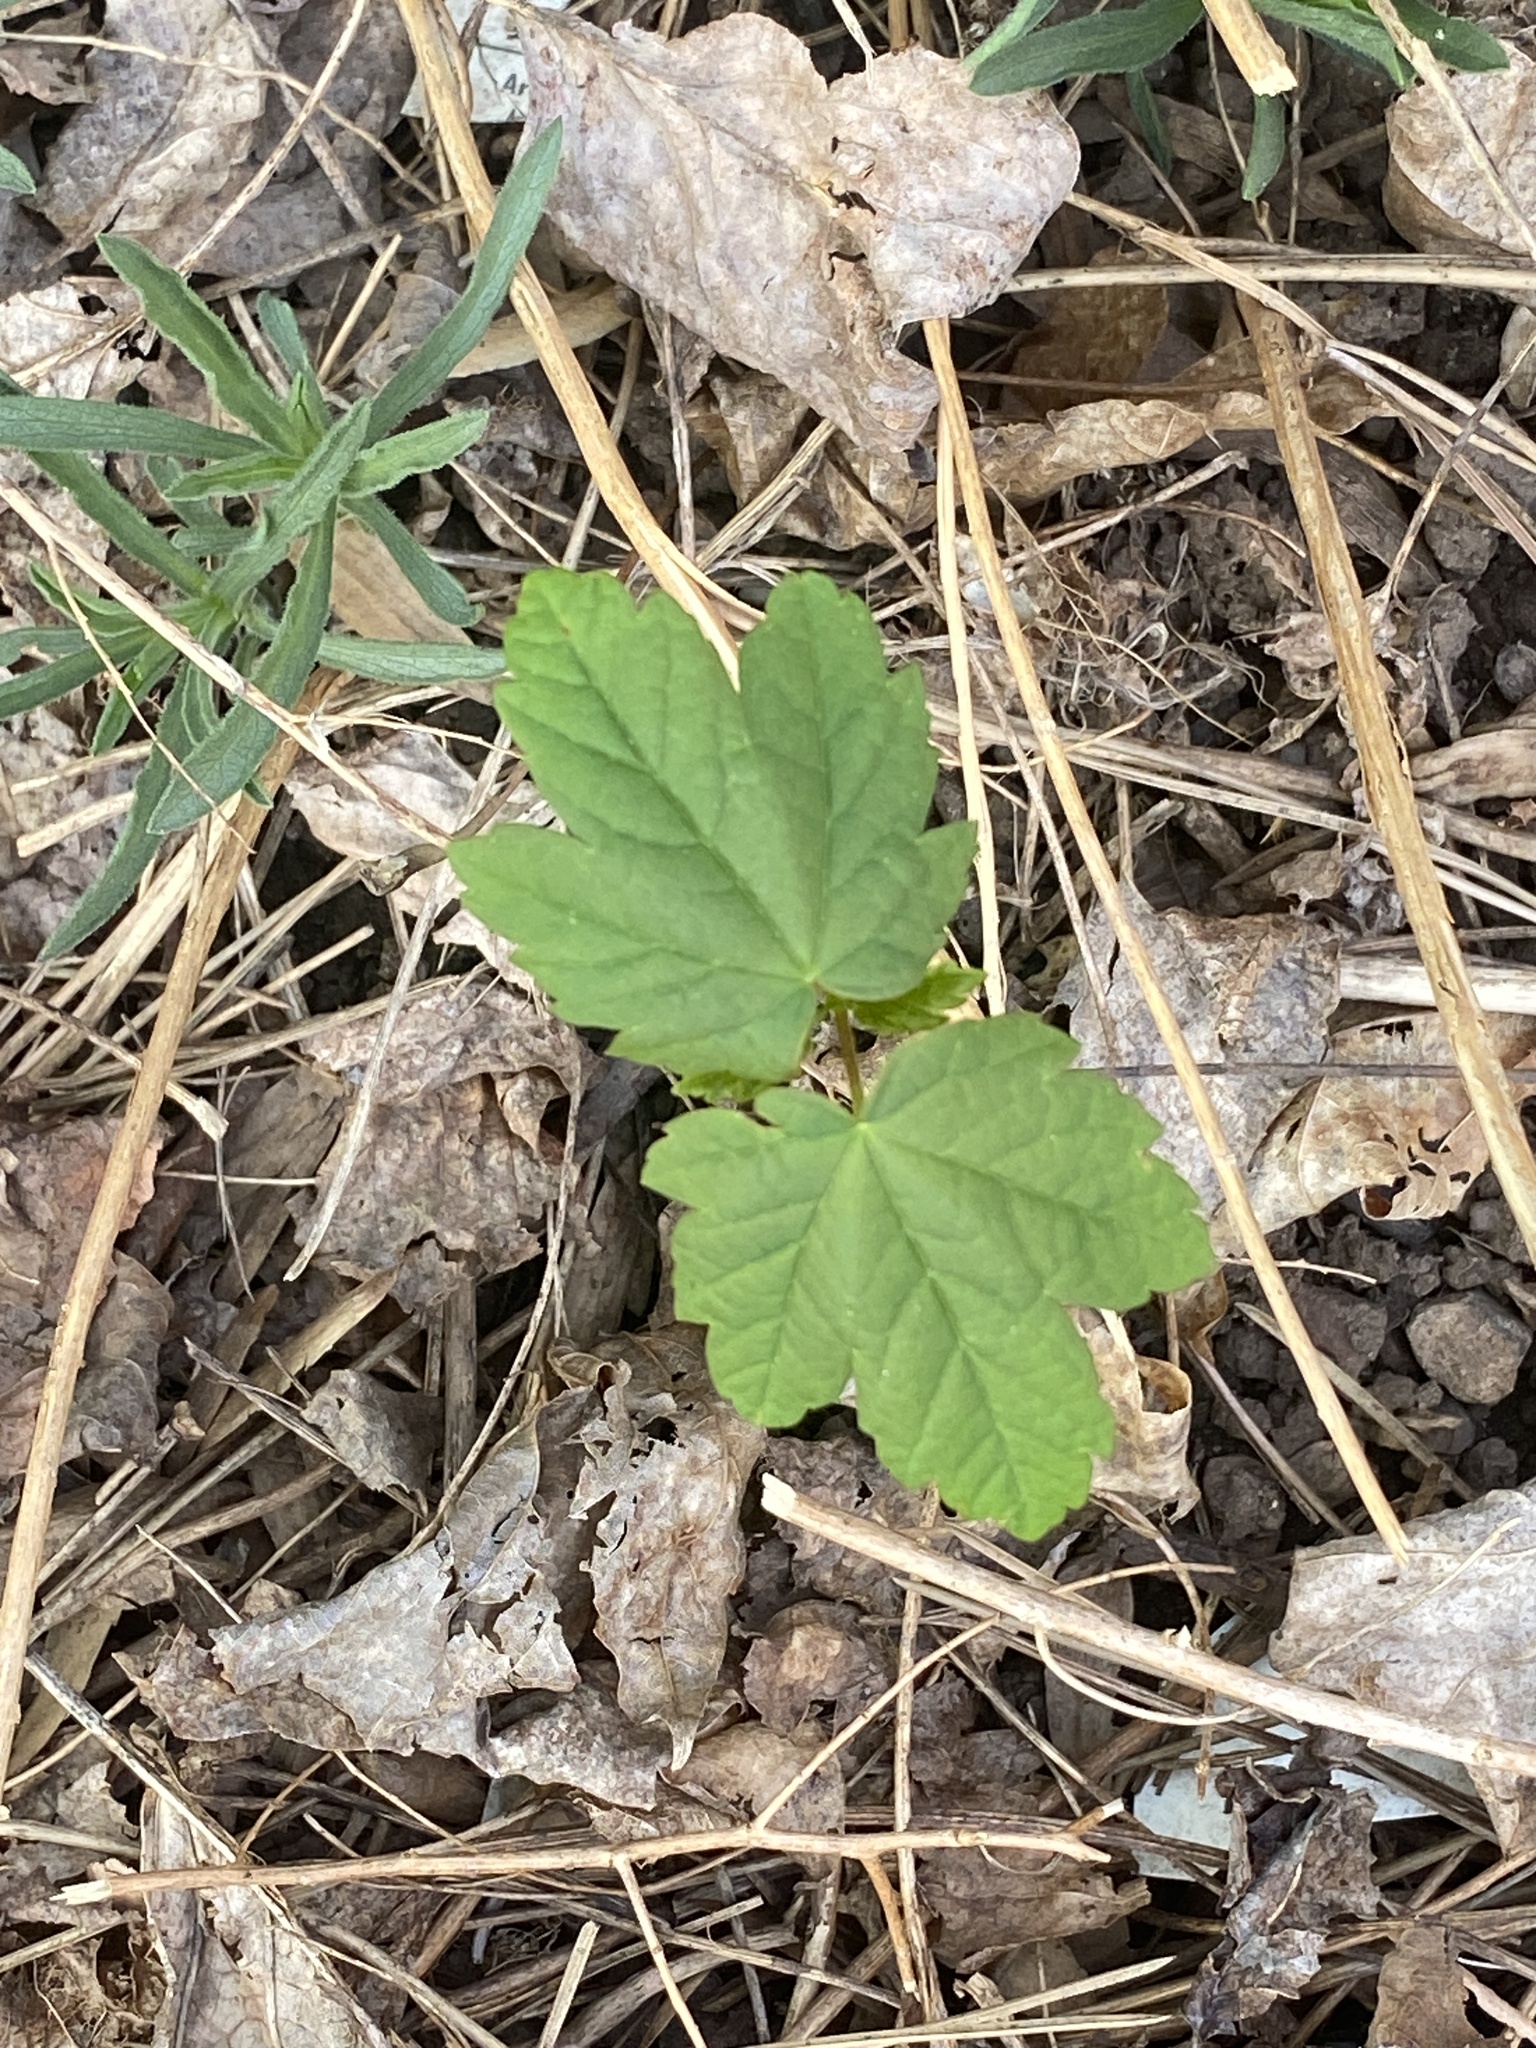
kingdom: Plantae
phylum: Tracheophyta
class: Magnoliopsida
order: Sapindales
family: Sapindaceae
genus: Acer
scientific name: Acer pseudoplatanus
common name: Sycamore
